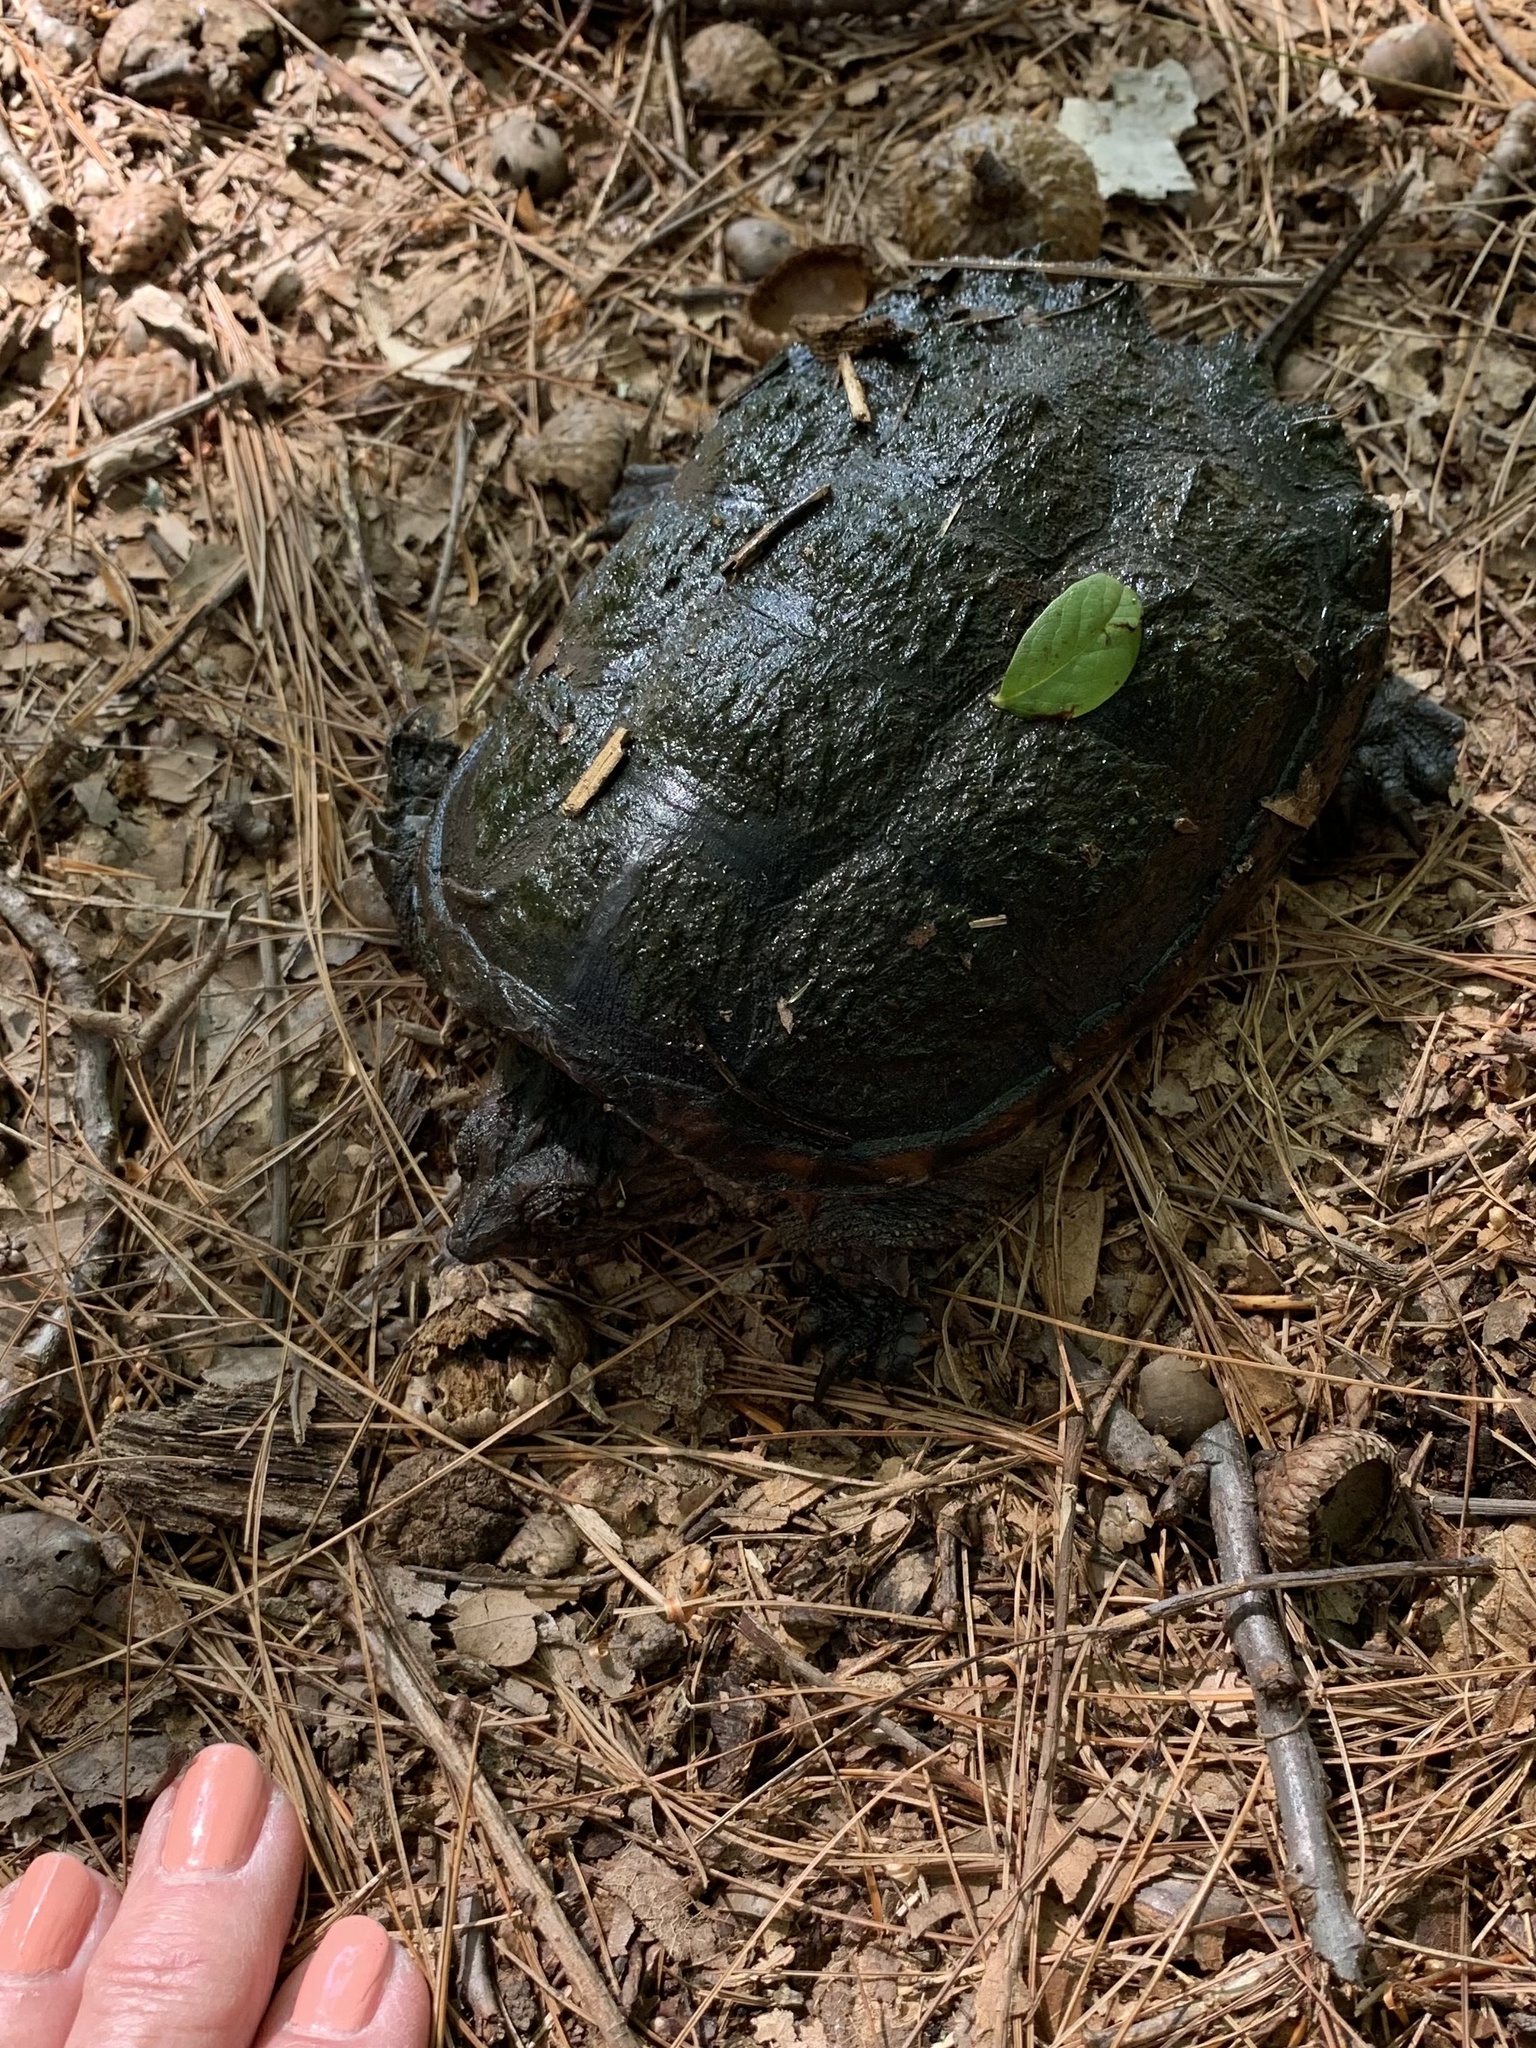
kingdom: Animalia
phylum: Chordata
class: Testudines
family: Chelydridae
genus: Chelydra
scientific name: Chelydra serpentina
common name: Common snapping turtle
